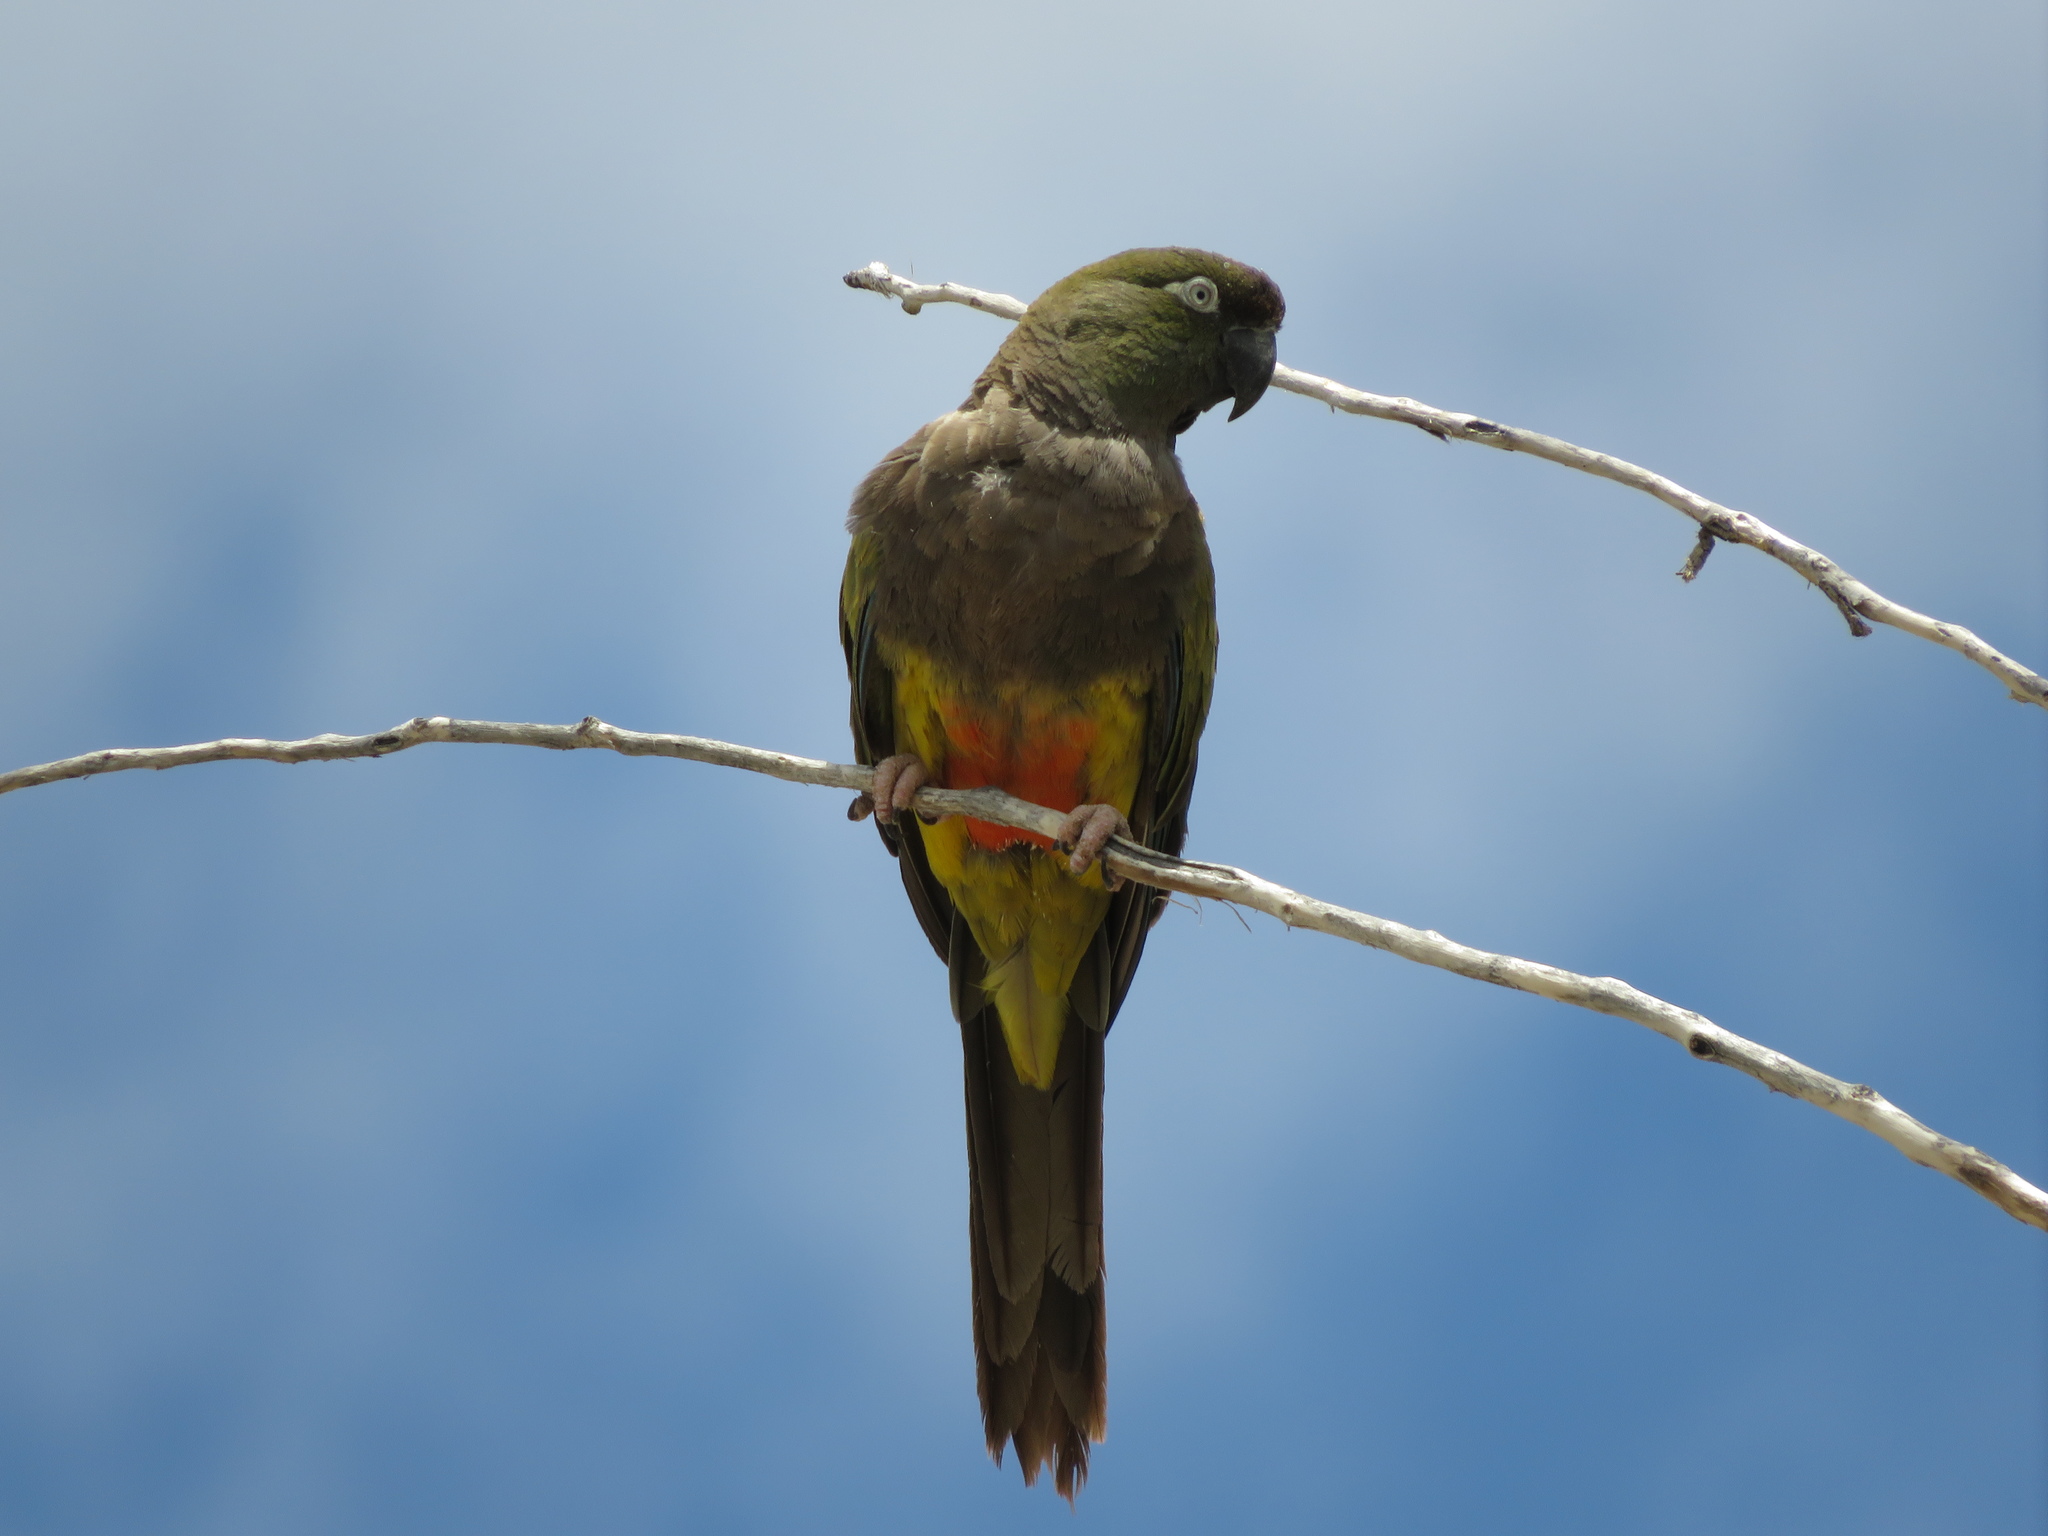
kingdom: Animalia
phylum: Chordata
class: Aves
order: Psittaciformes
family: Psittacidae
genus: Cyanoliseus
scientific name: Cyanoliseus patagonus
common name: Burrowing parrot
